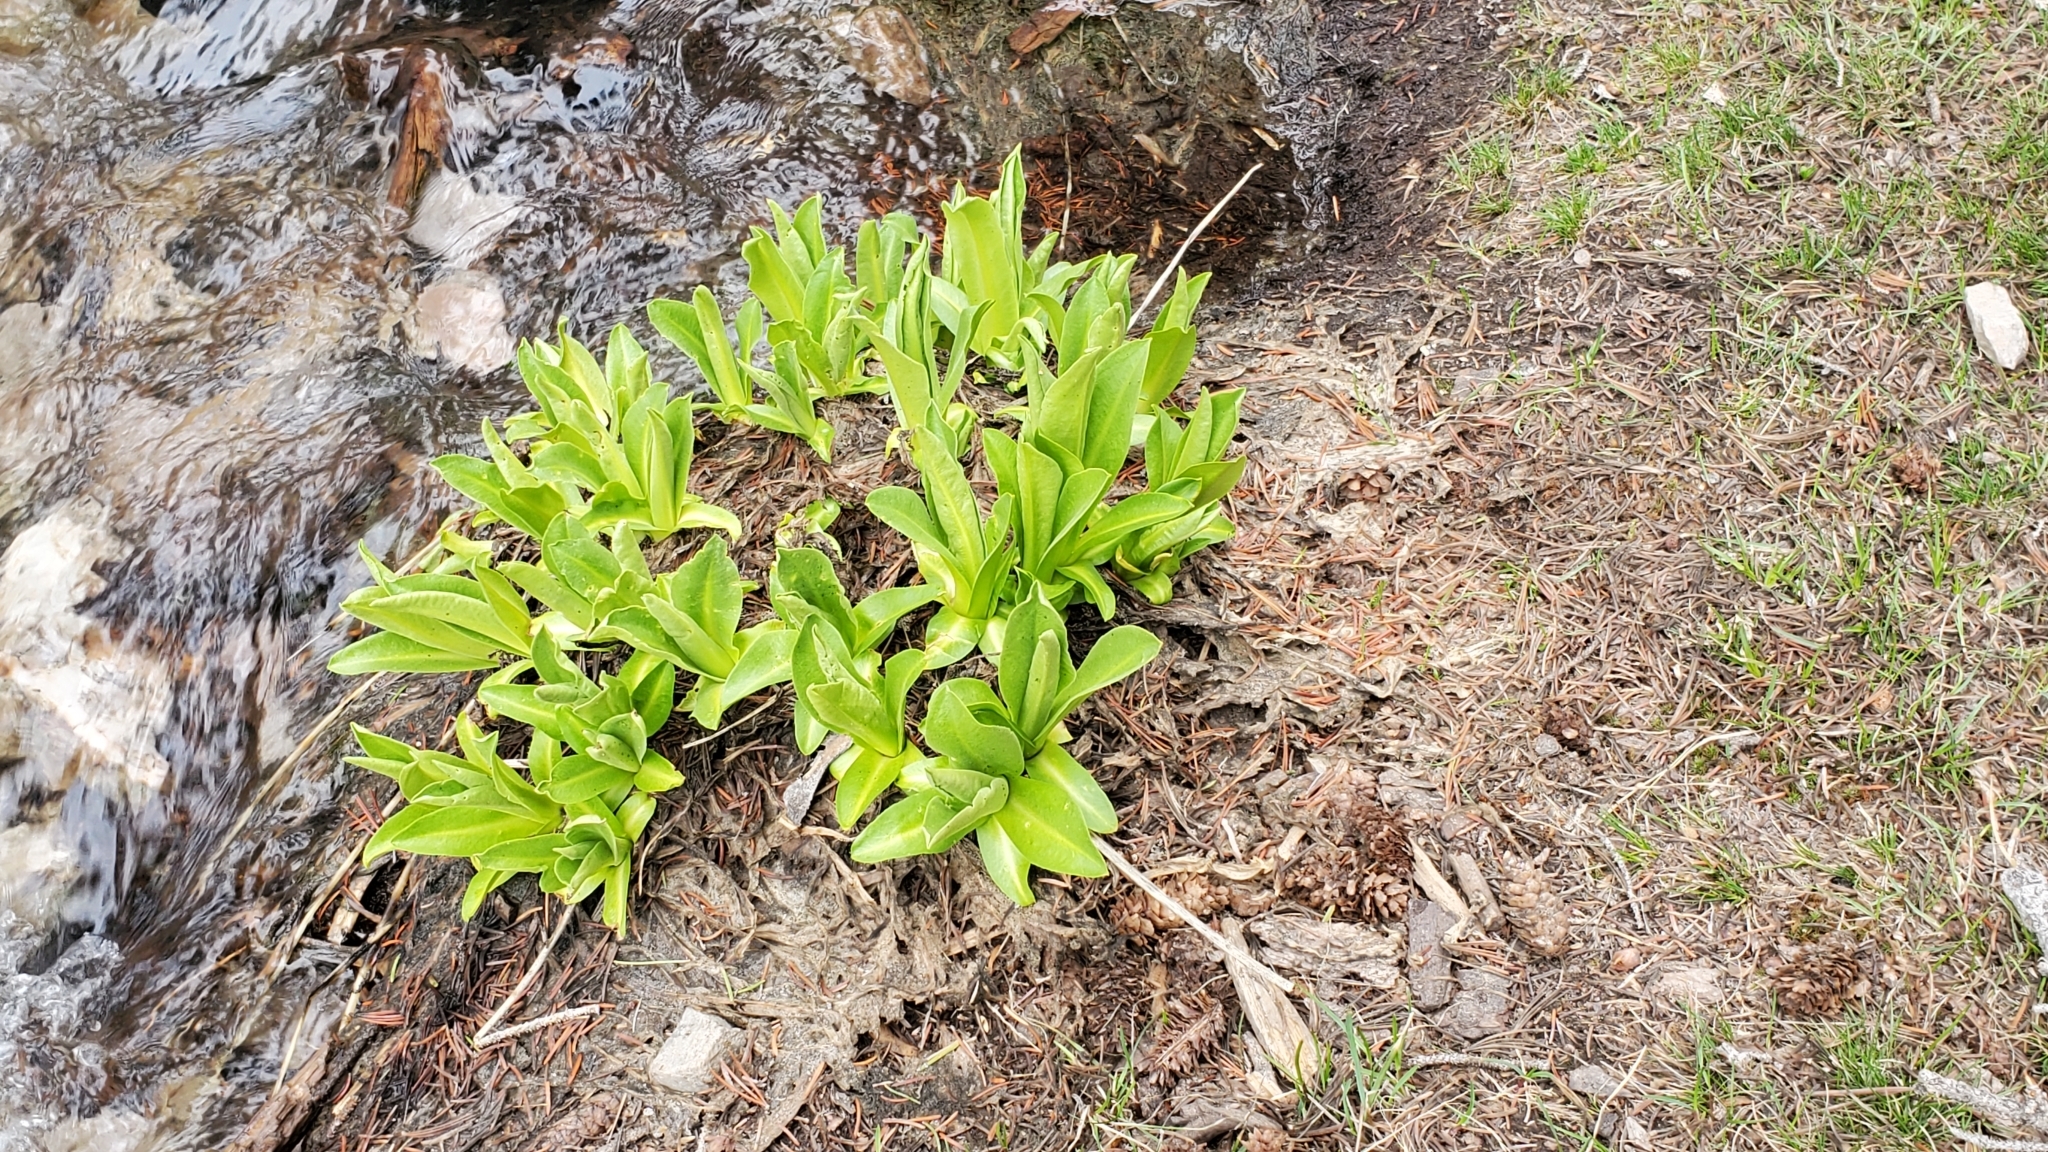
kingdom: Plantae
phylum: Tracheophyta
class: Magnoliopsida
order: Ericales
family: Primulaceae
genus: Primula
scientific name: Primula parryi
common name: Parry's primrose
